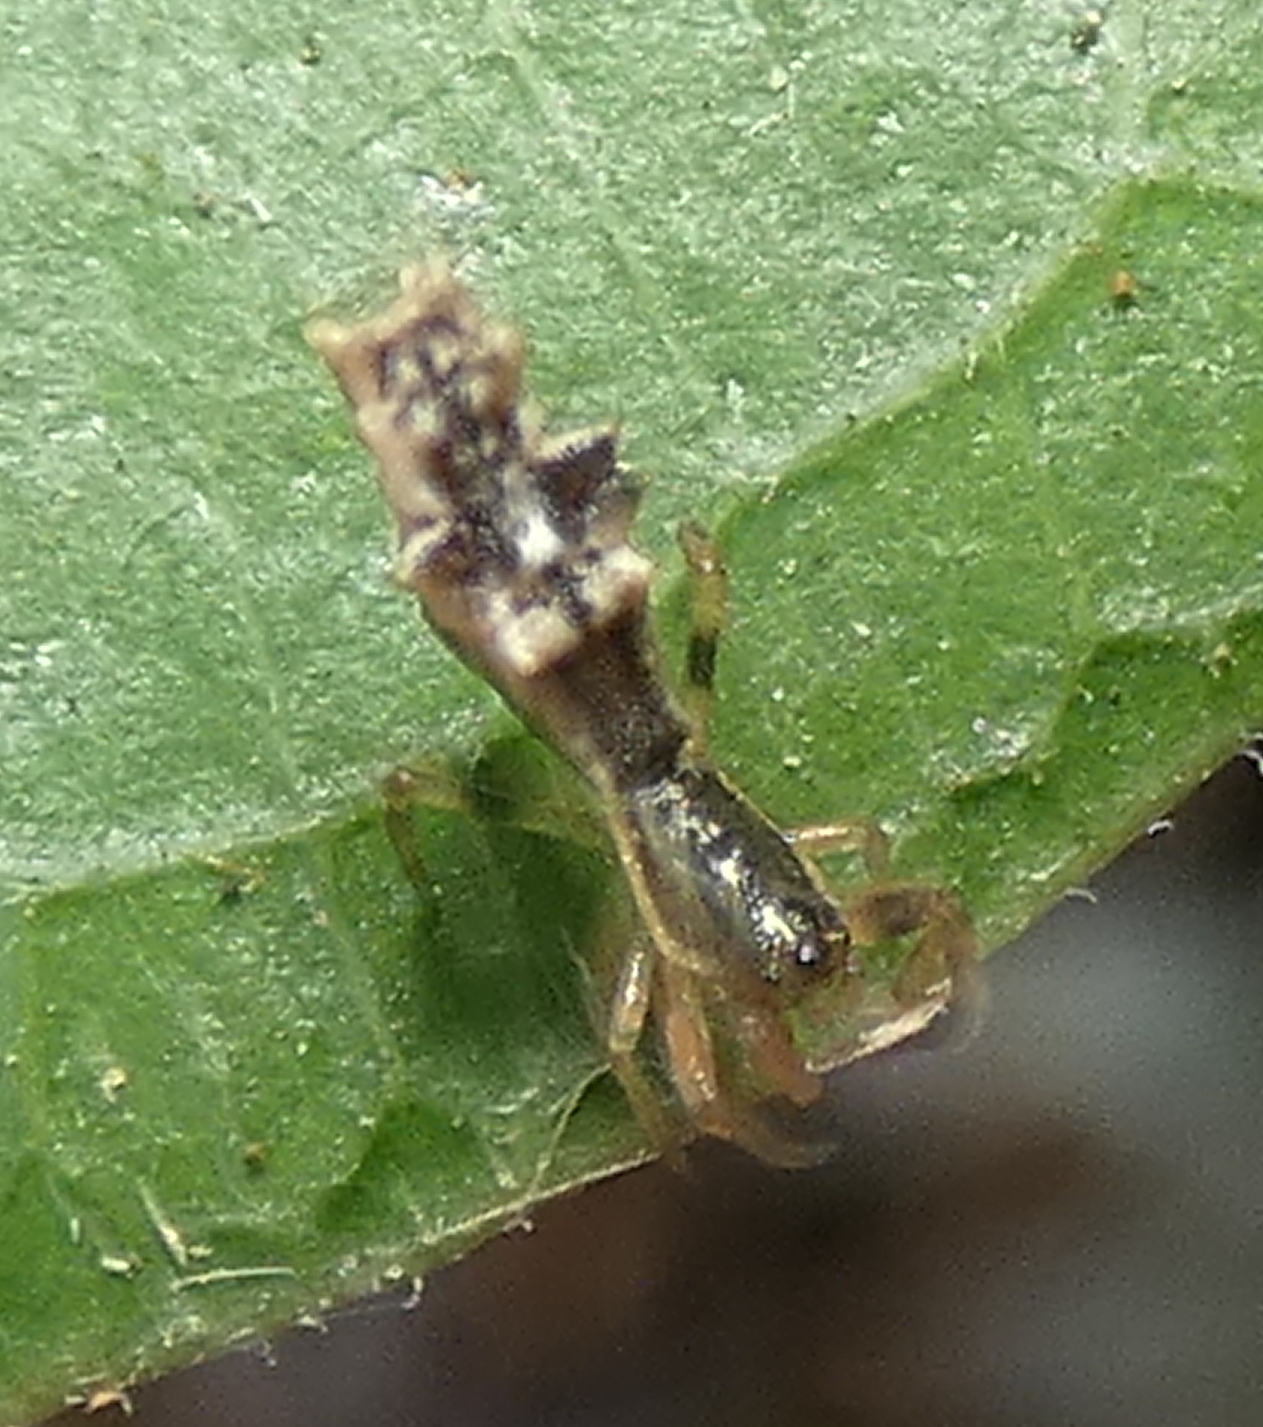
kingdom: Animalia
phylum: Arthropoda
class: Arachnida
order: Araneae
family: Araneidae
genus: Micrathena
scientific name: Micrathena horrida
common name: Orb weavers
